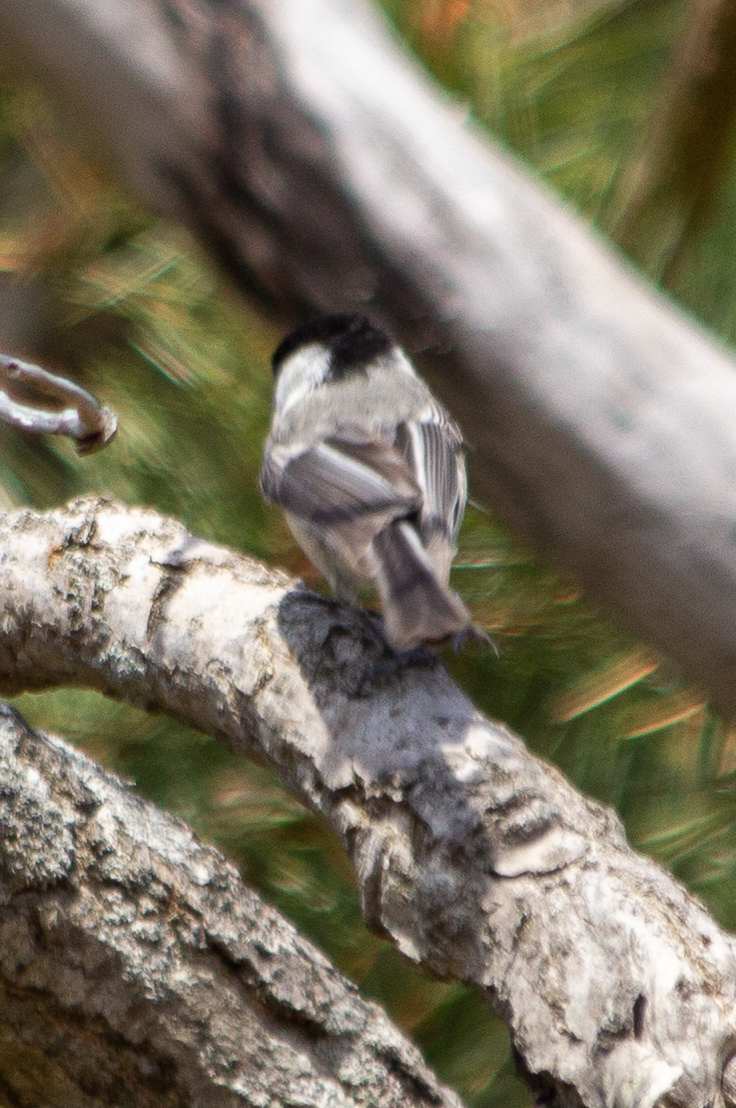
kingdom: Animalia
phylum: Chordata
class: Aves
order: Passeriformes
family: Paridae
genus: Poecile
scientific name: Poecile atricapillus
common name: Black-capped chickadee
